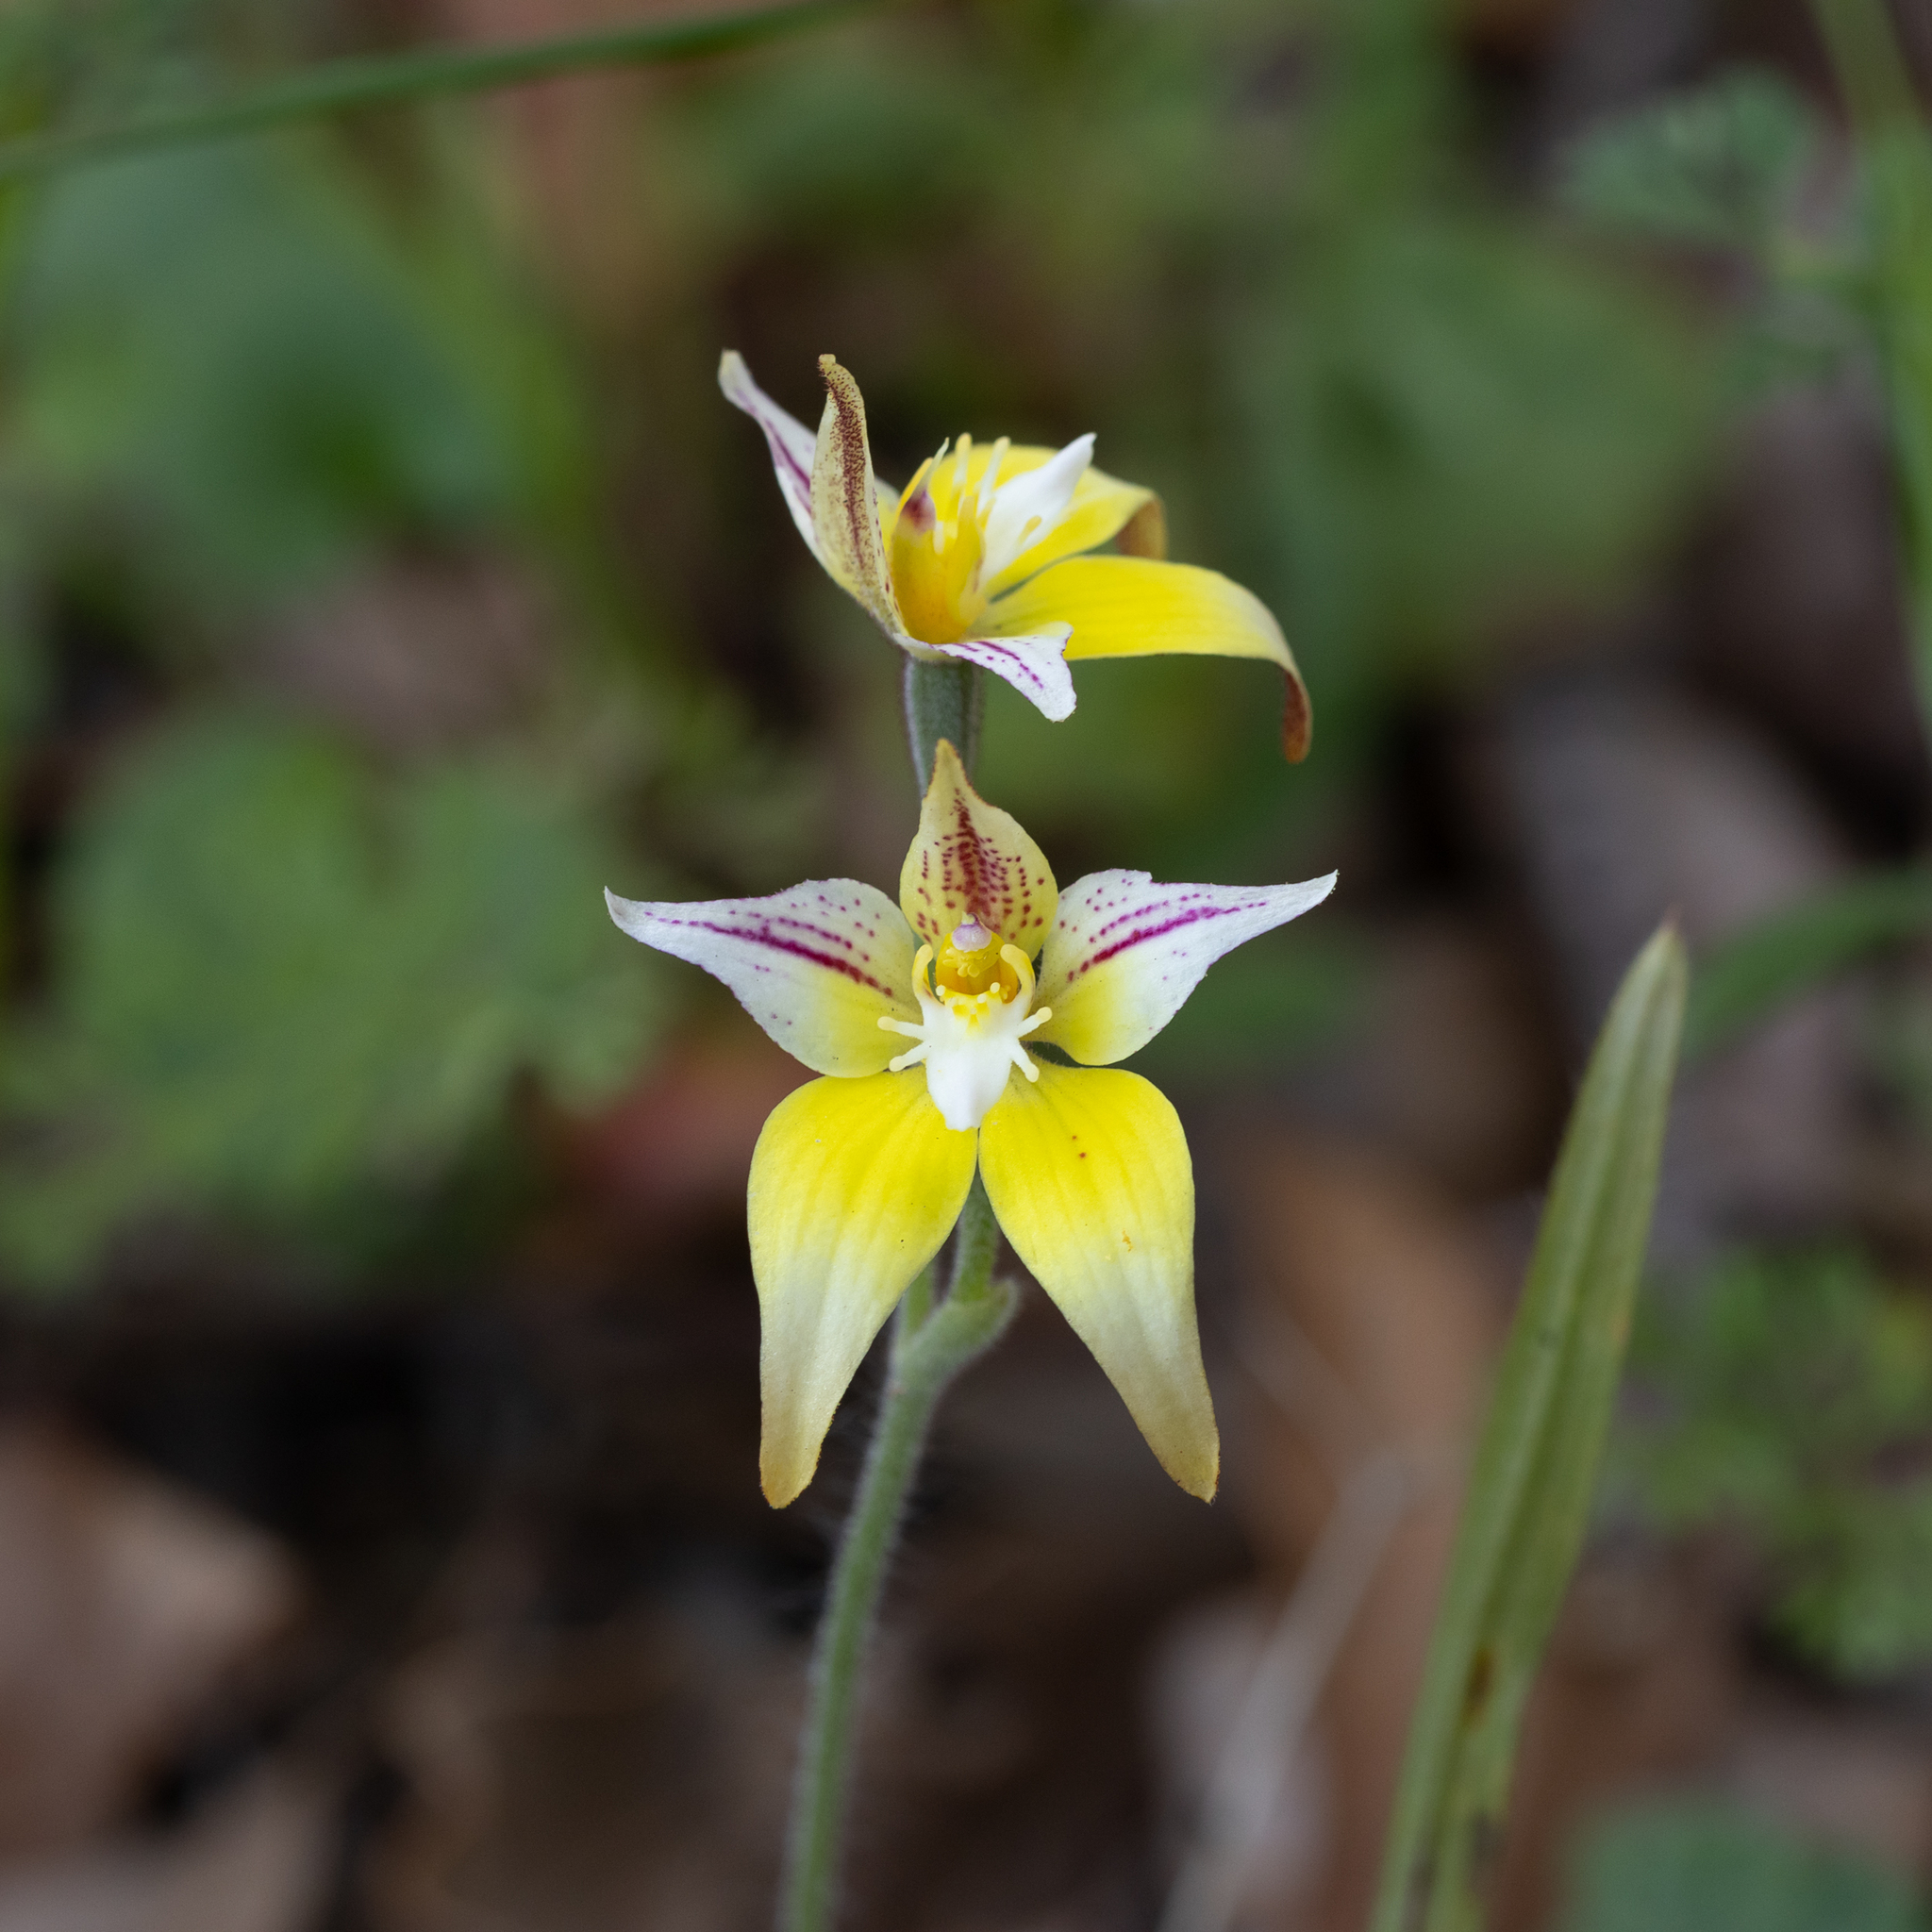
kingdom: Plantae
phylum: Tracheophyta
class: Liliopsida
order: Asparagales
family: Orchidaceae
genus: Caladenia
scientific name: Caladenia flava
